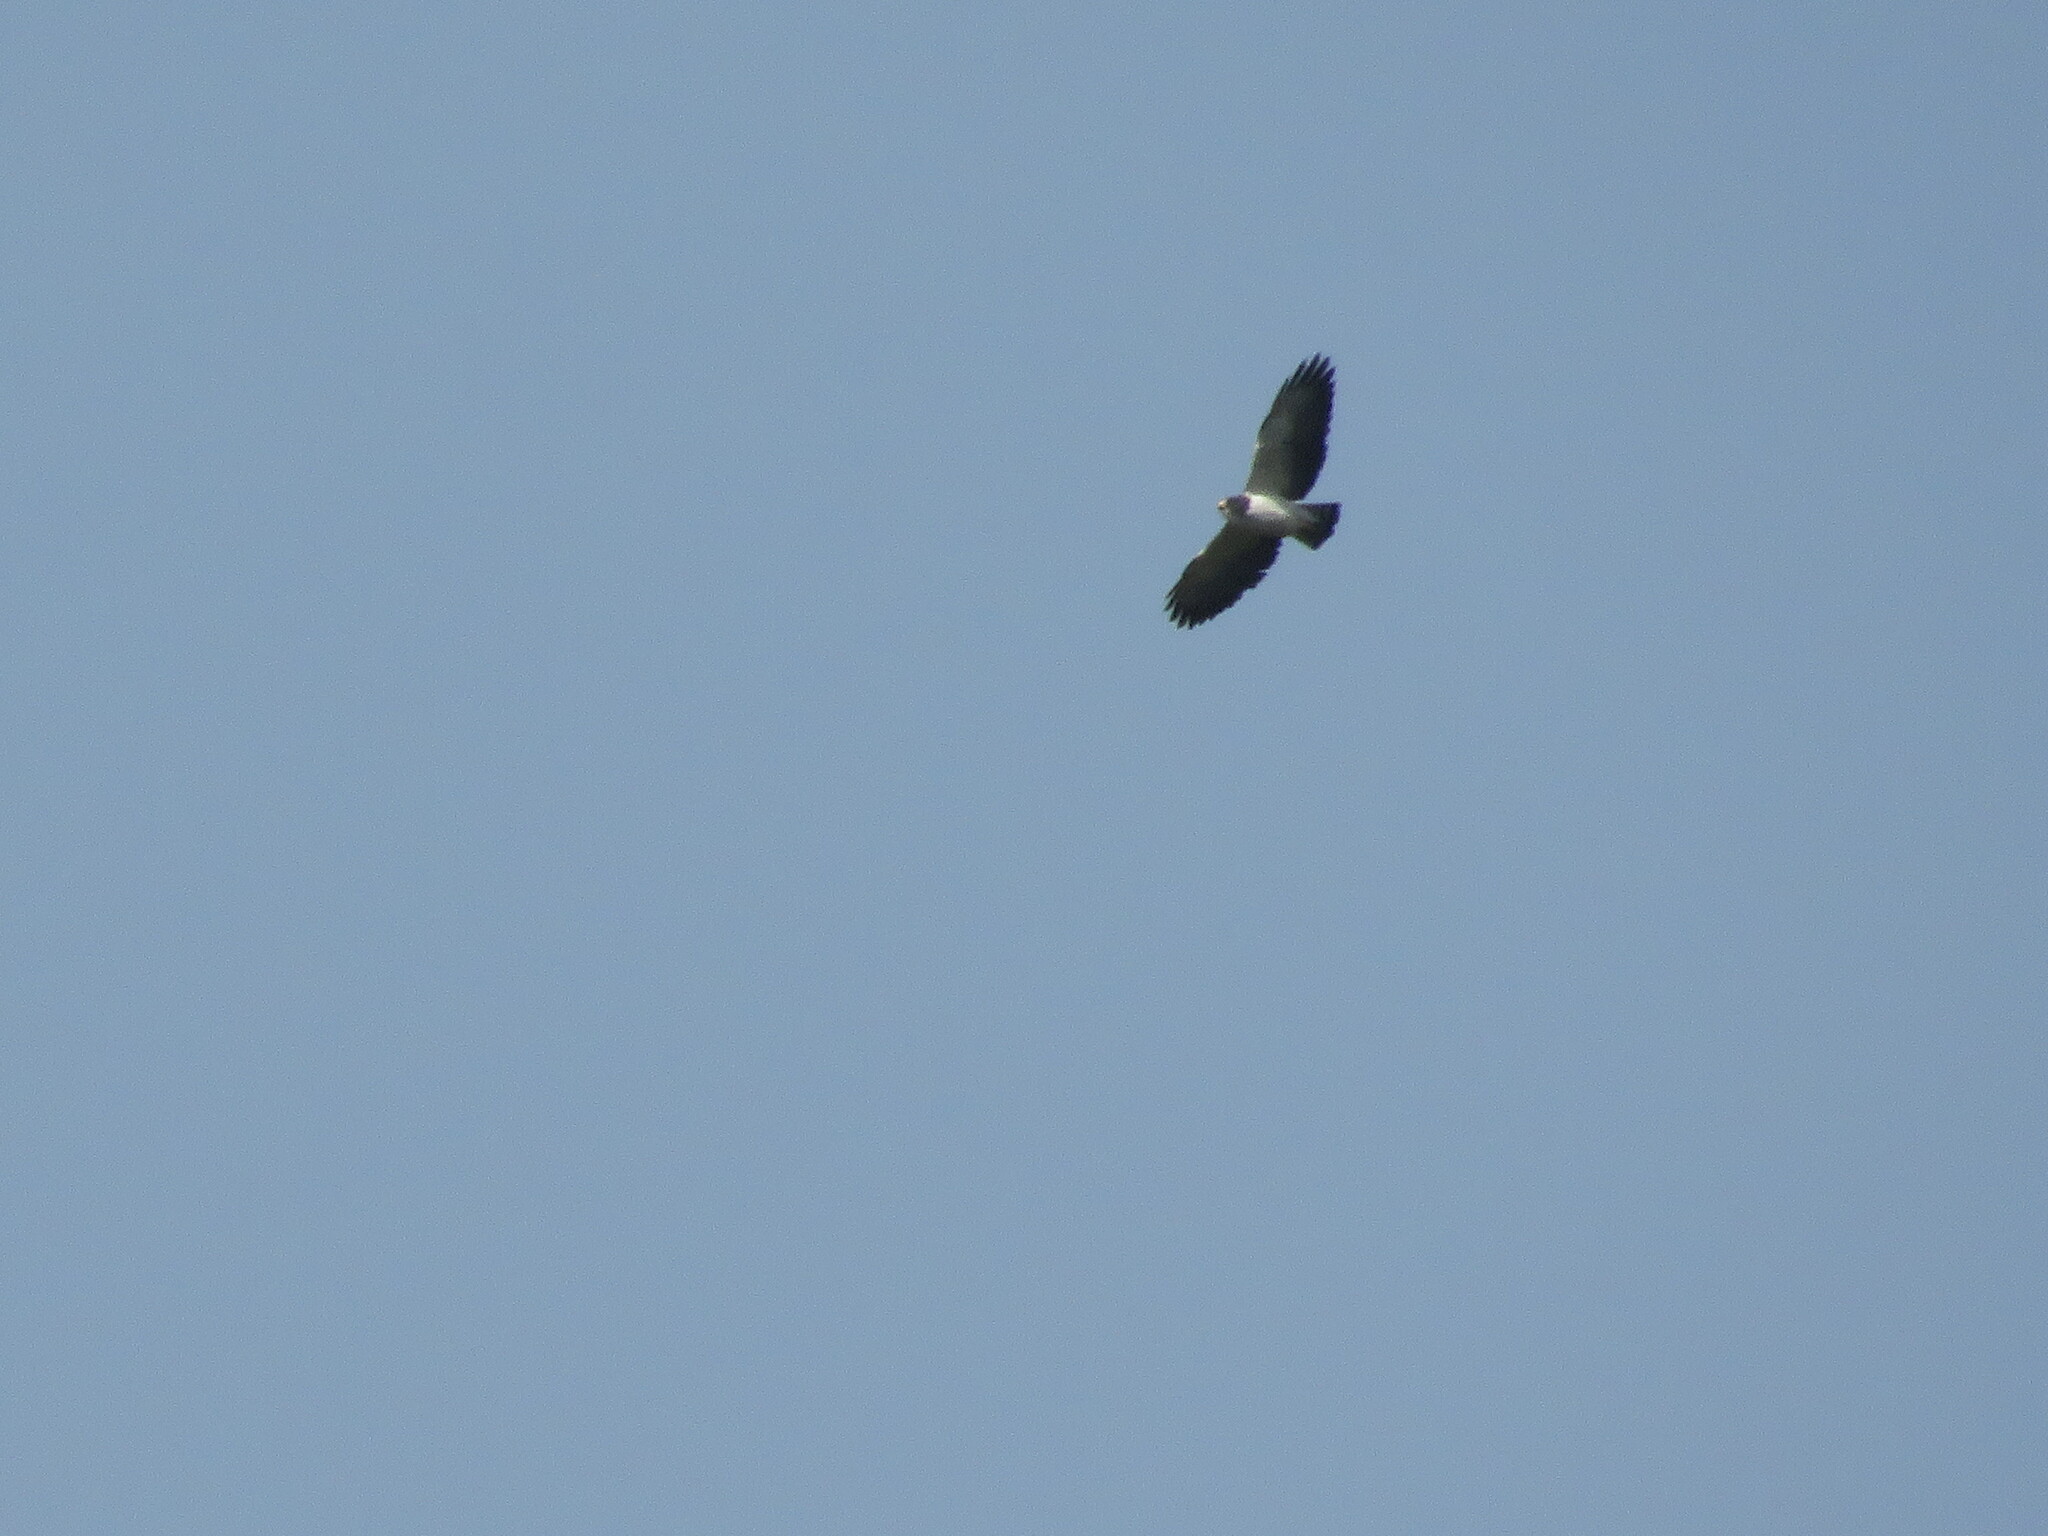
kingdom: Animalia
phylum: Chordata
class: Aves
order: Accipitriformes
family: Accipitridae
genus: Buteo
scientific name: Buteo brachyurus
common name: Short-tailed hawk
